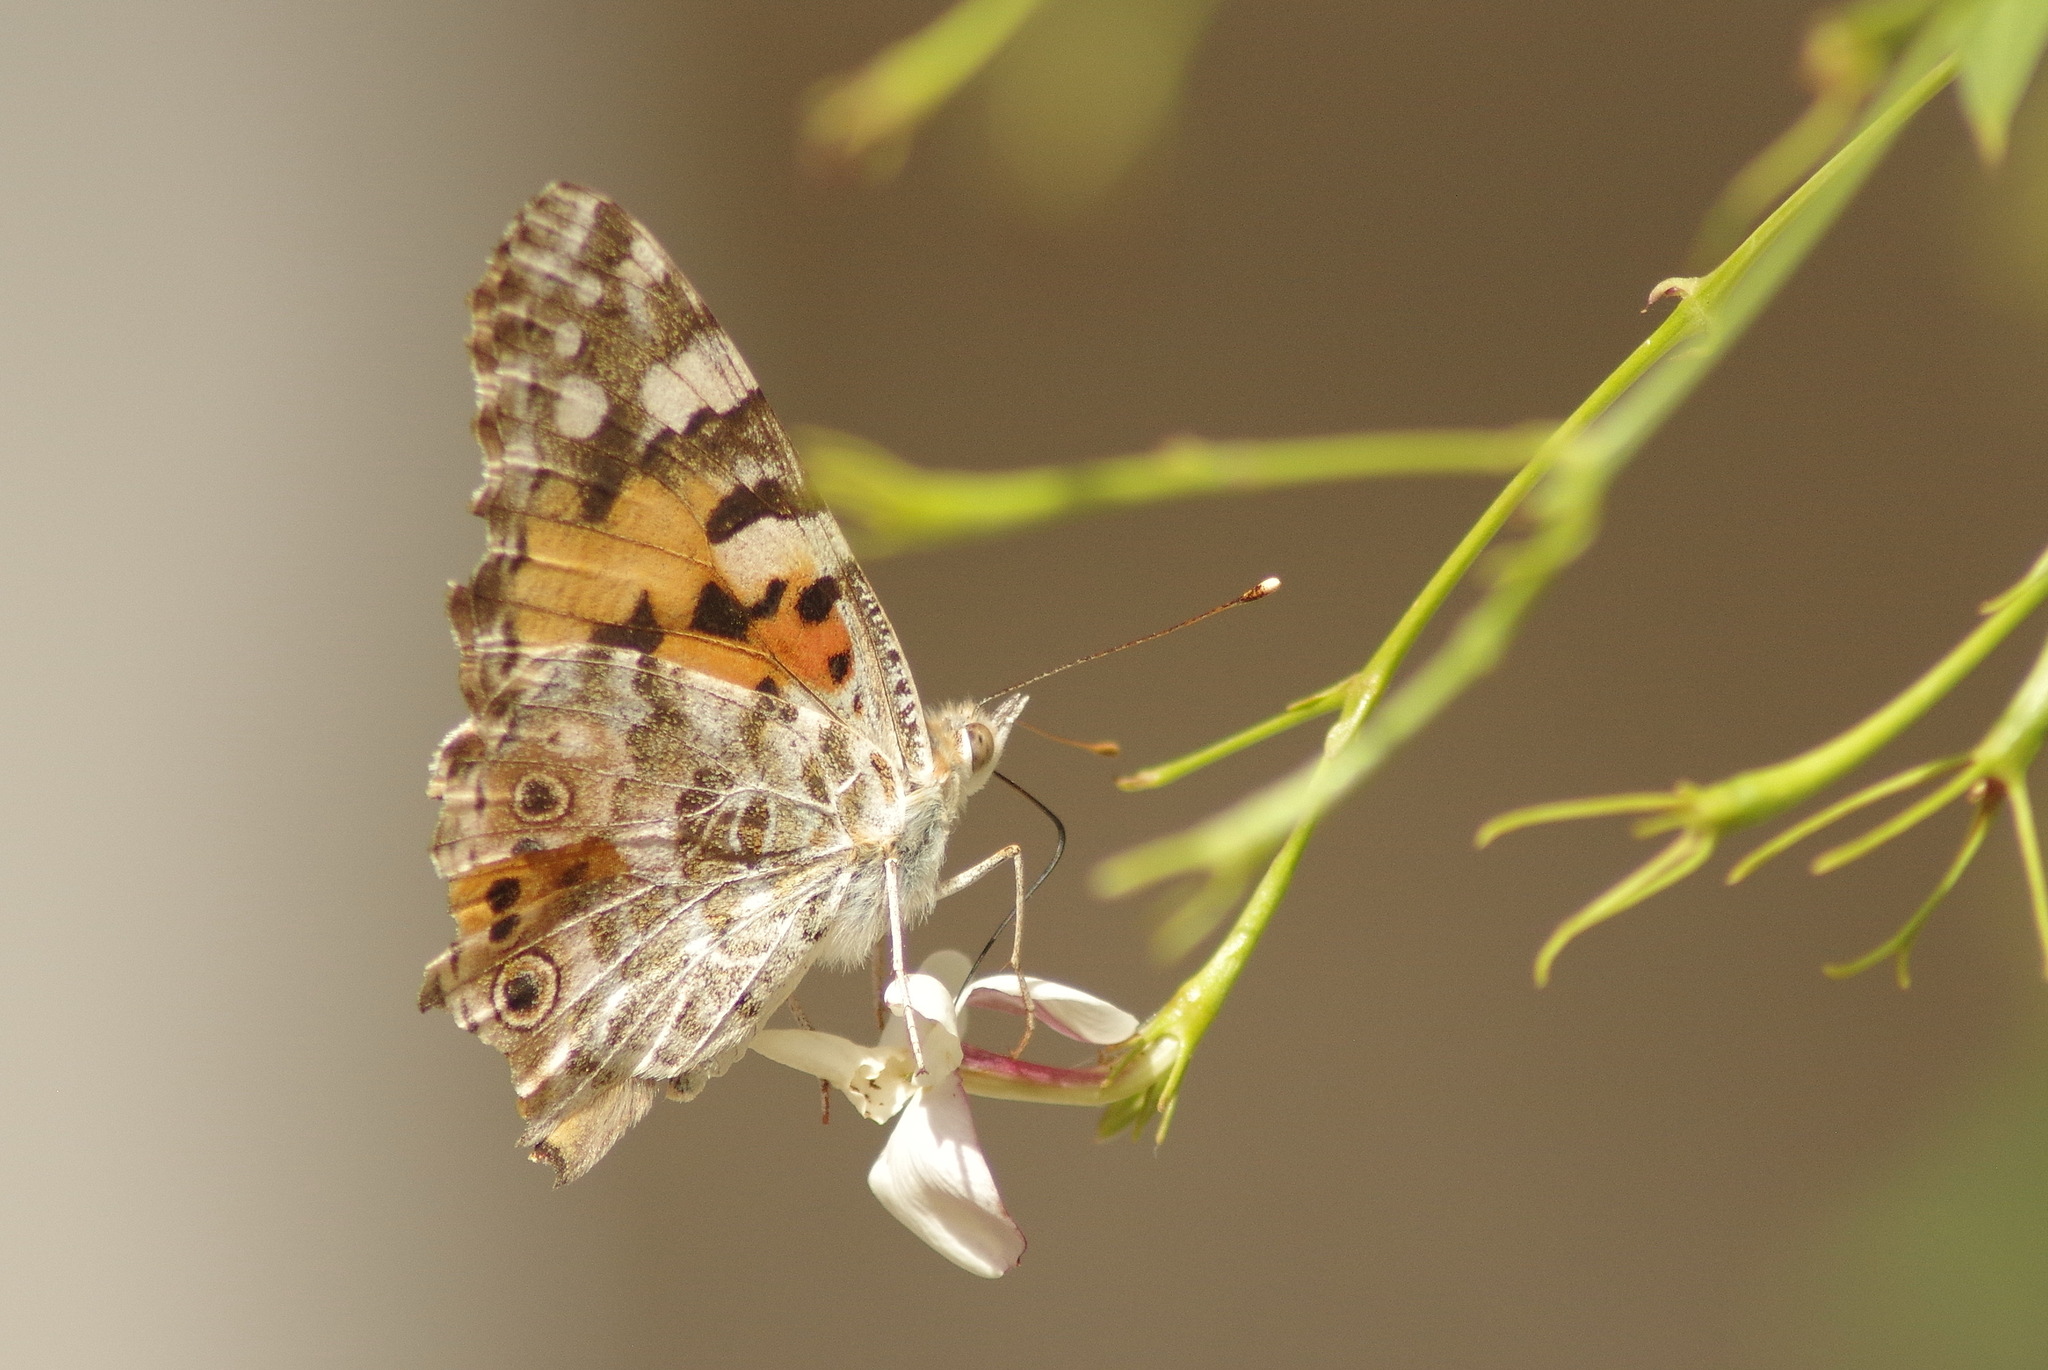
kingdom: Animalia
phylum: Arthropoda
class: Insecta
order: Lepidoptera
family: Nymphalidae
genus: Vanessa
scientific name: Vanessa cardui
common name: Painted lady
